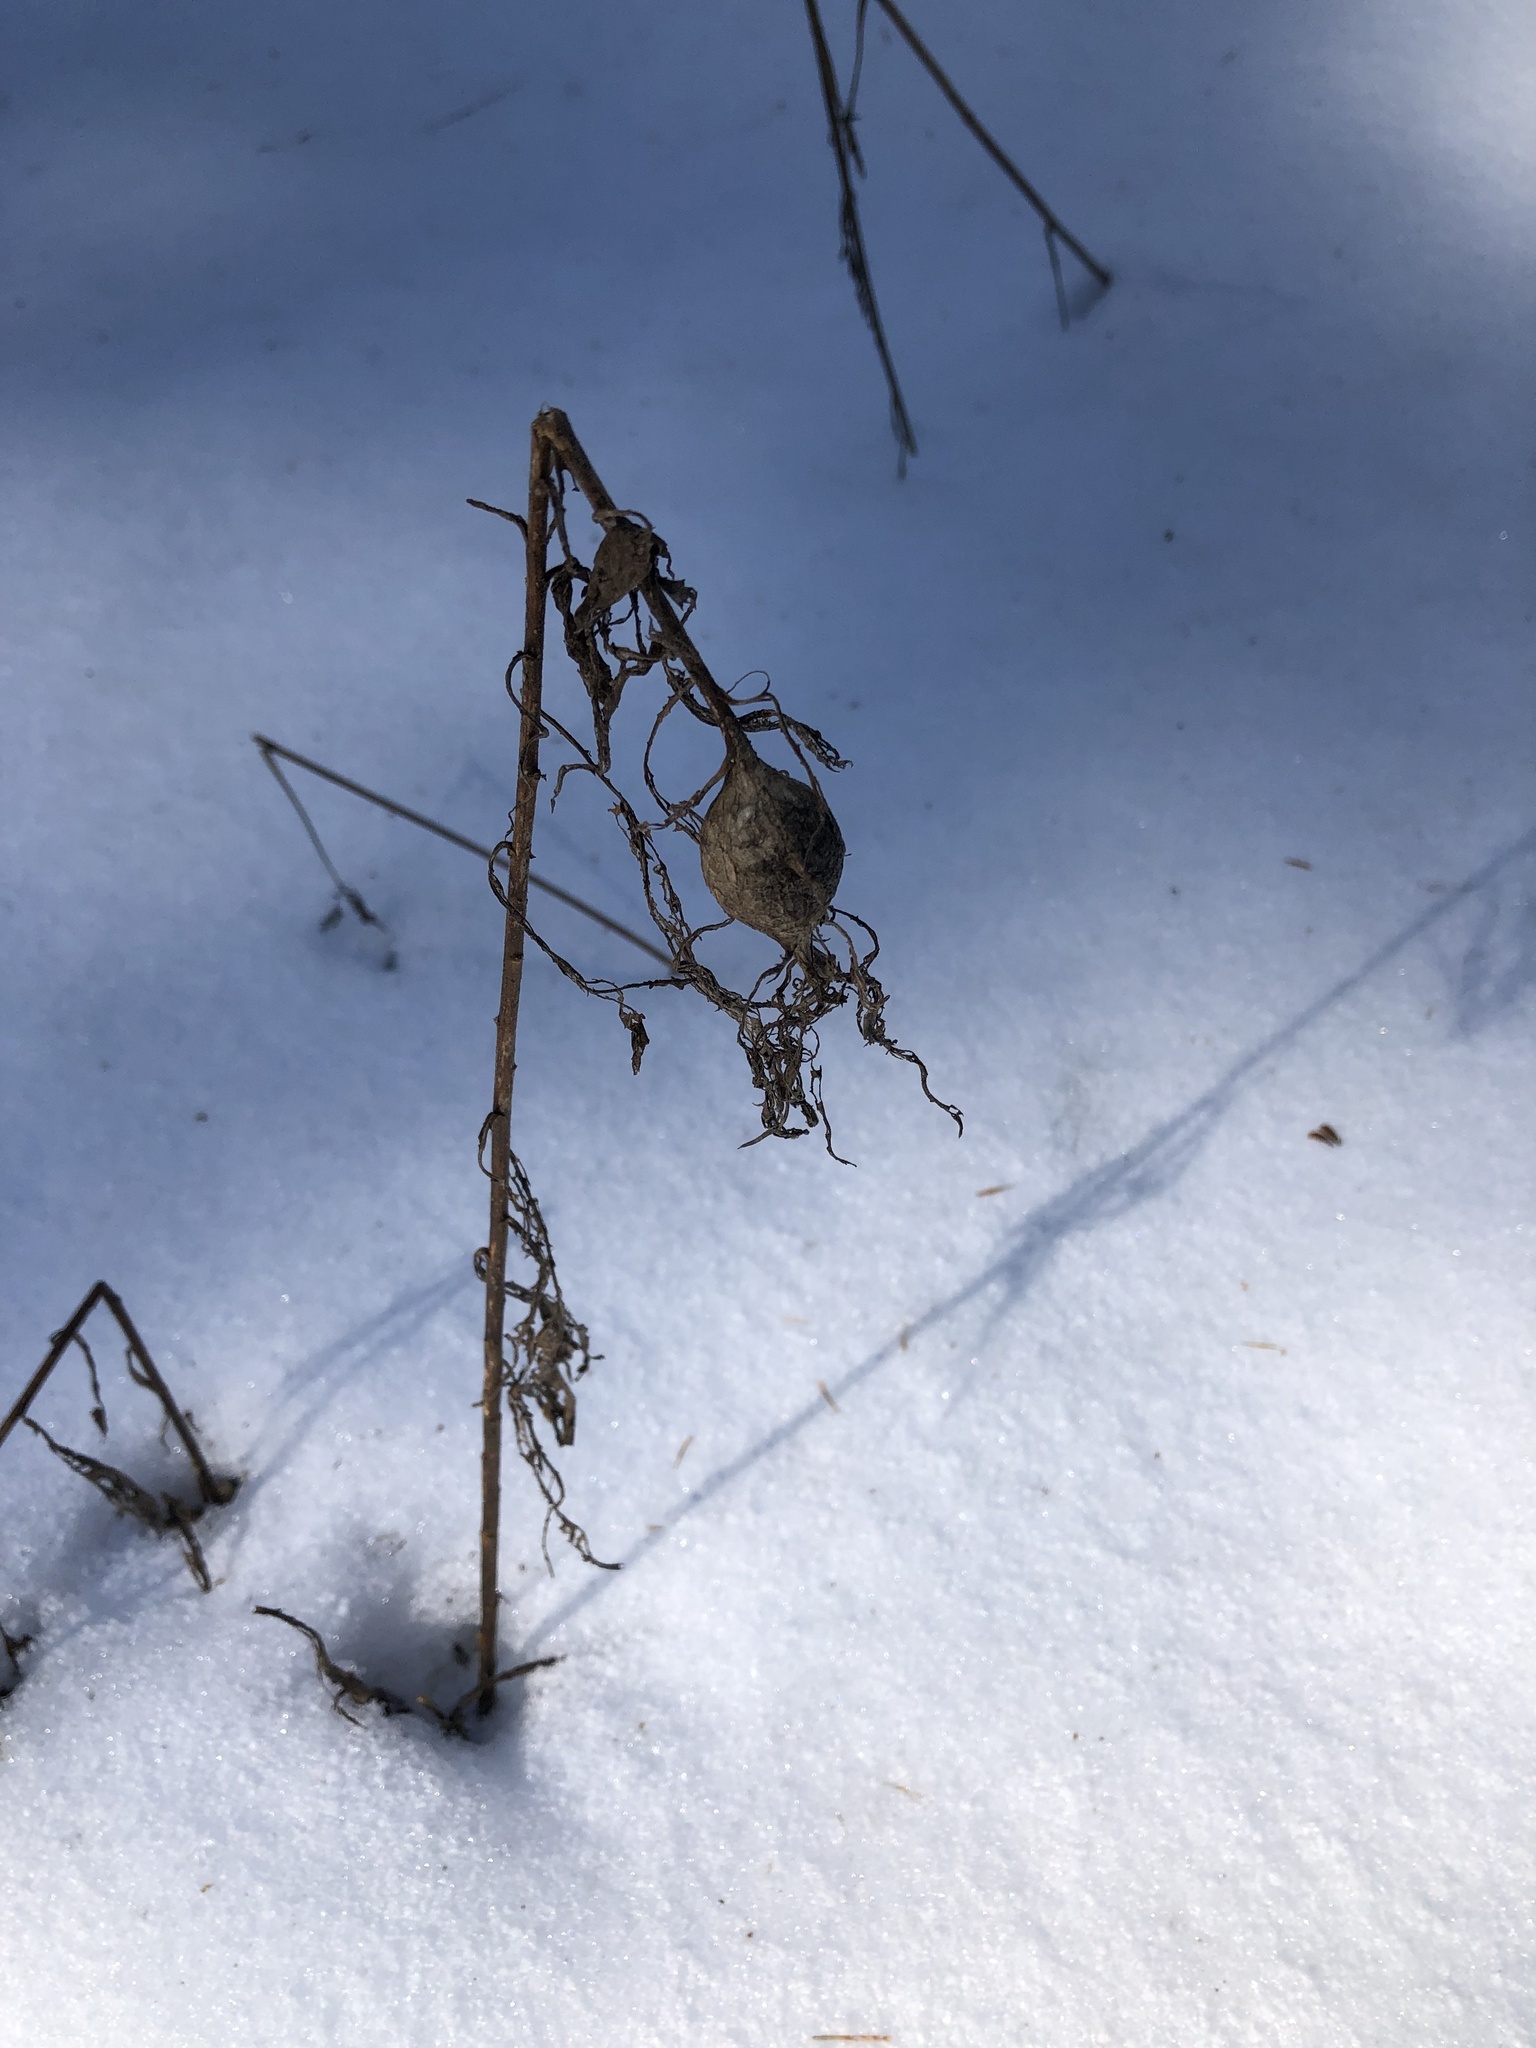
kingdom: Animalia
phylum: Arthropoda
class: Insecta
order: Diptera
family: Tephritidae
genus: Eurosta
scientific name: Eurosta solidaginis
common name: Goldenrod gall fly
